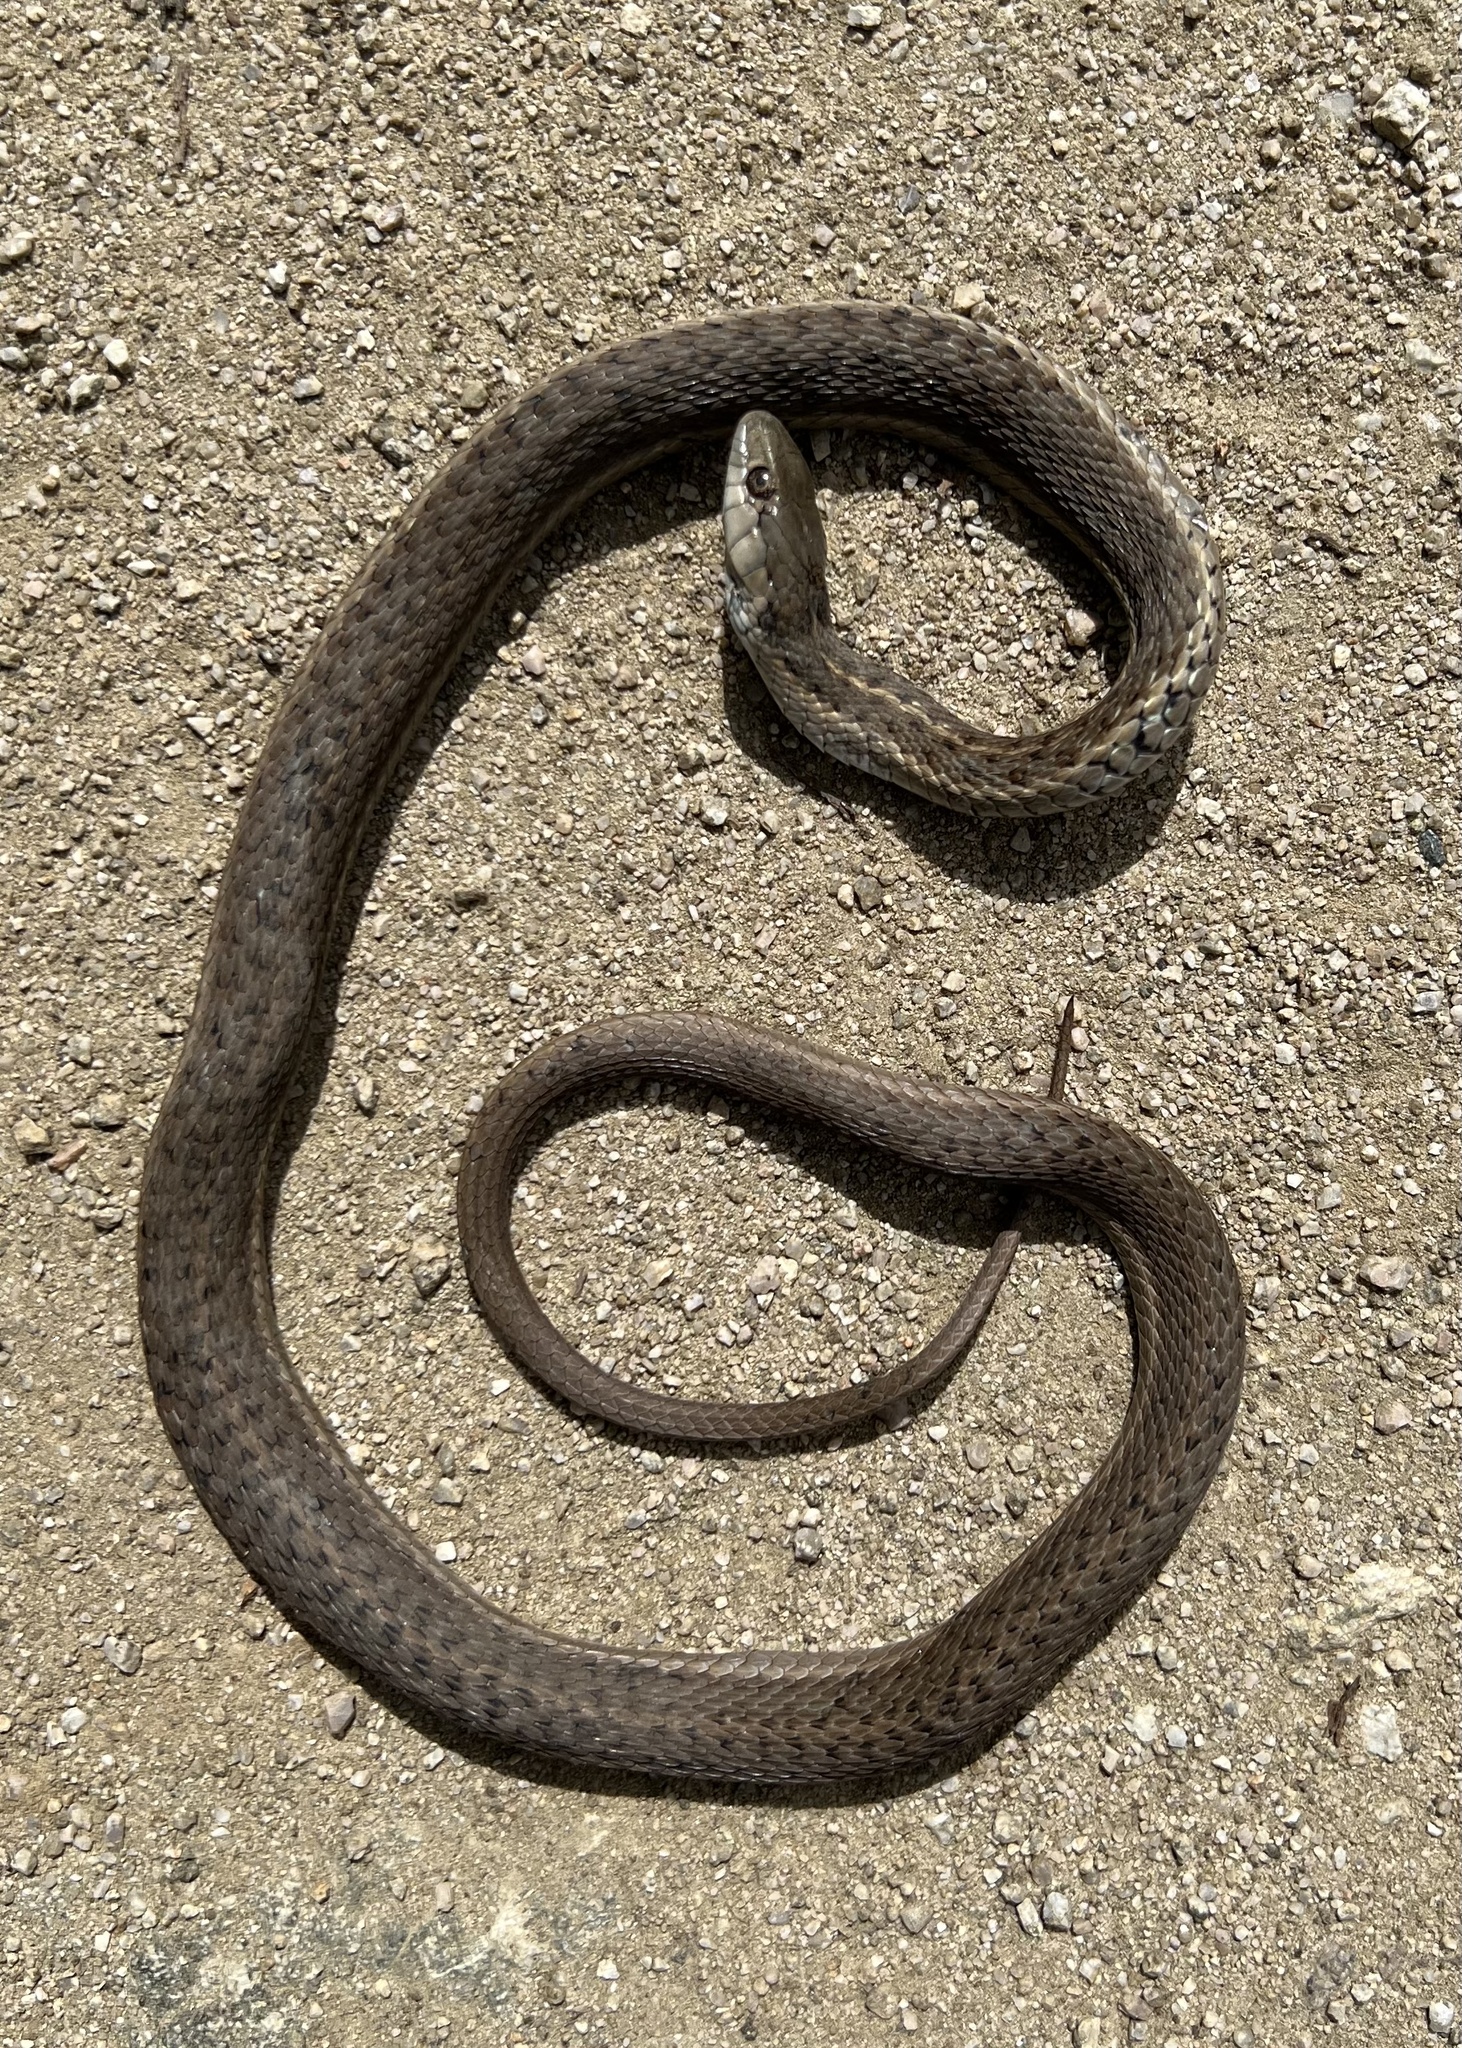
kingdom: Animalia
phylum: Chordata
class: Squamata
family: Colubridae
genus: Thamnophis
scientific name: Thamnophis elegans
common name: Western terrestrial garter snake
